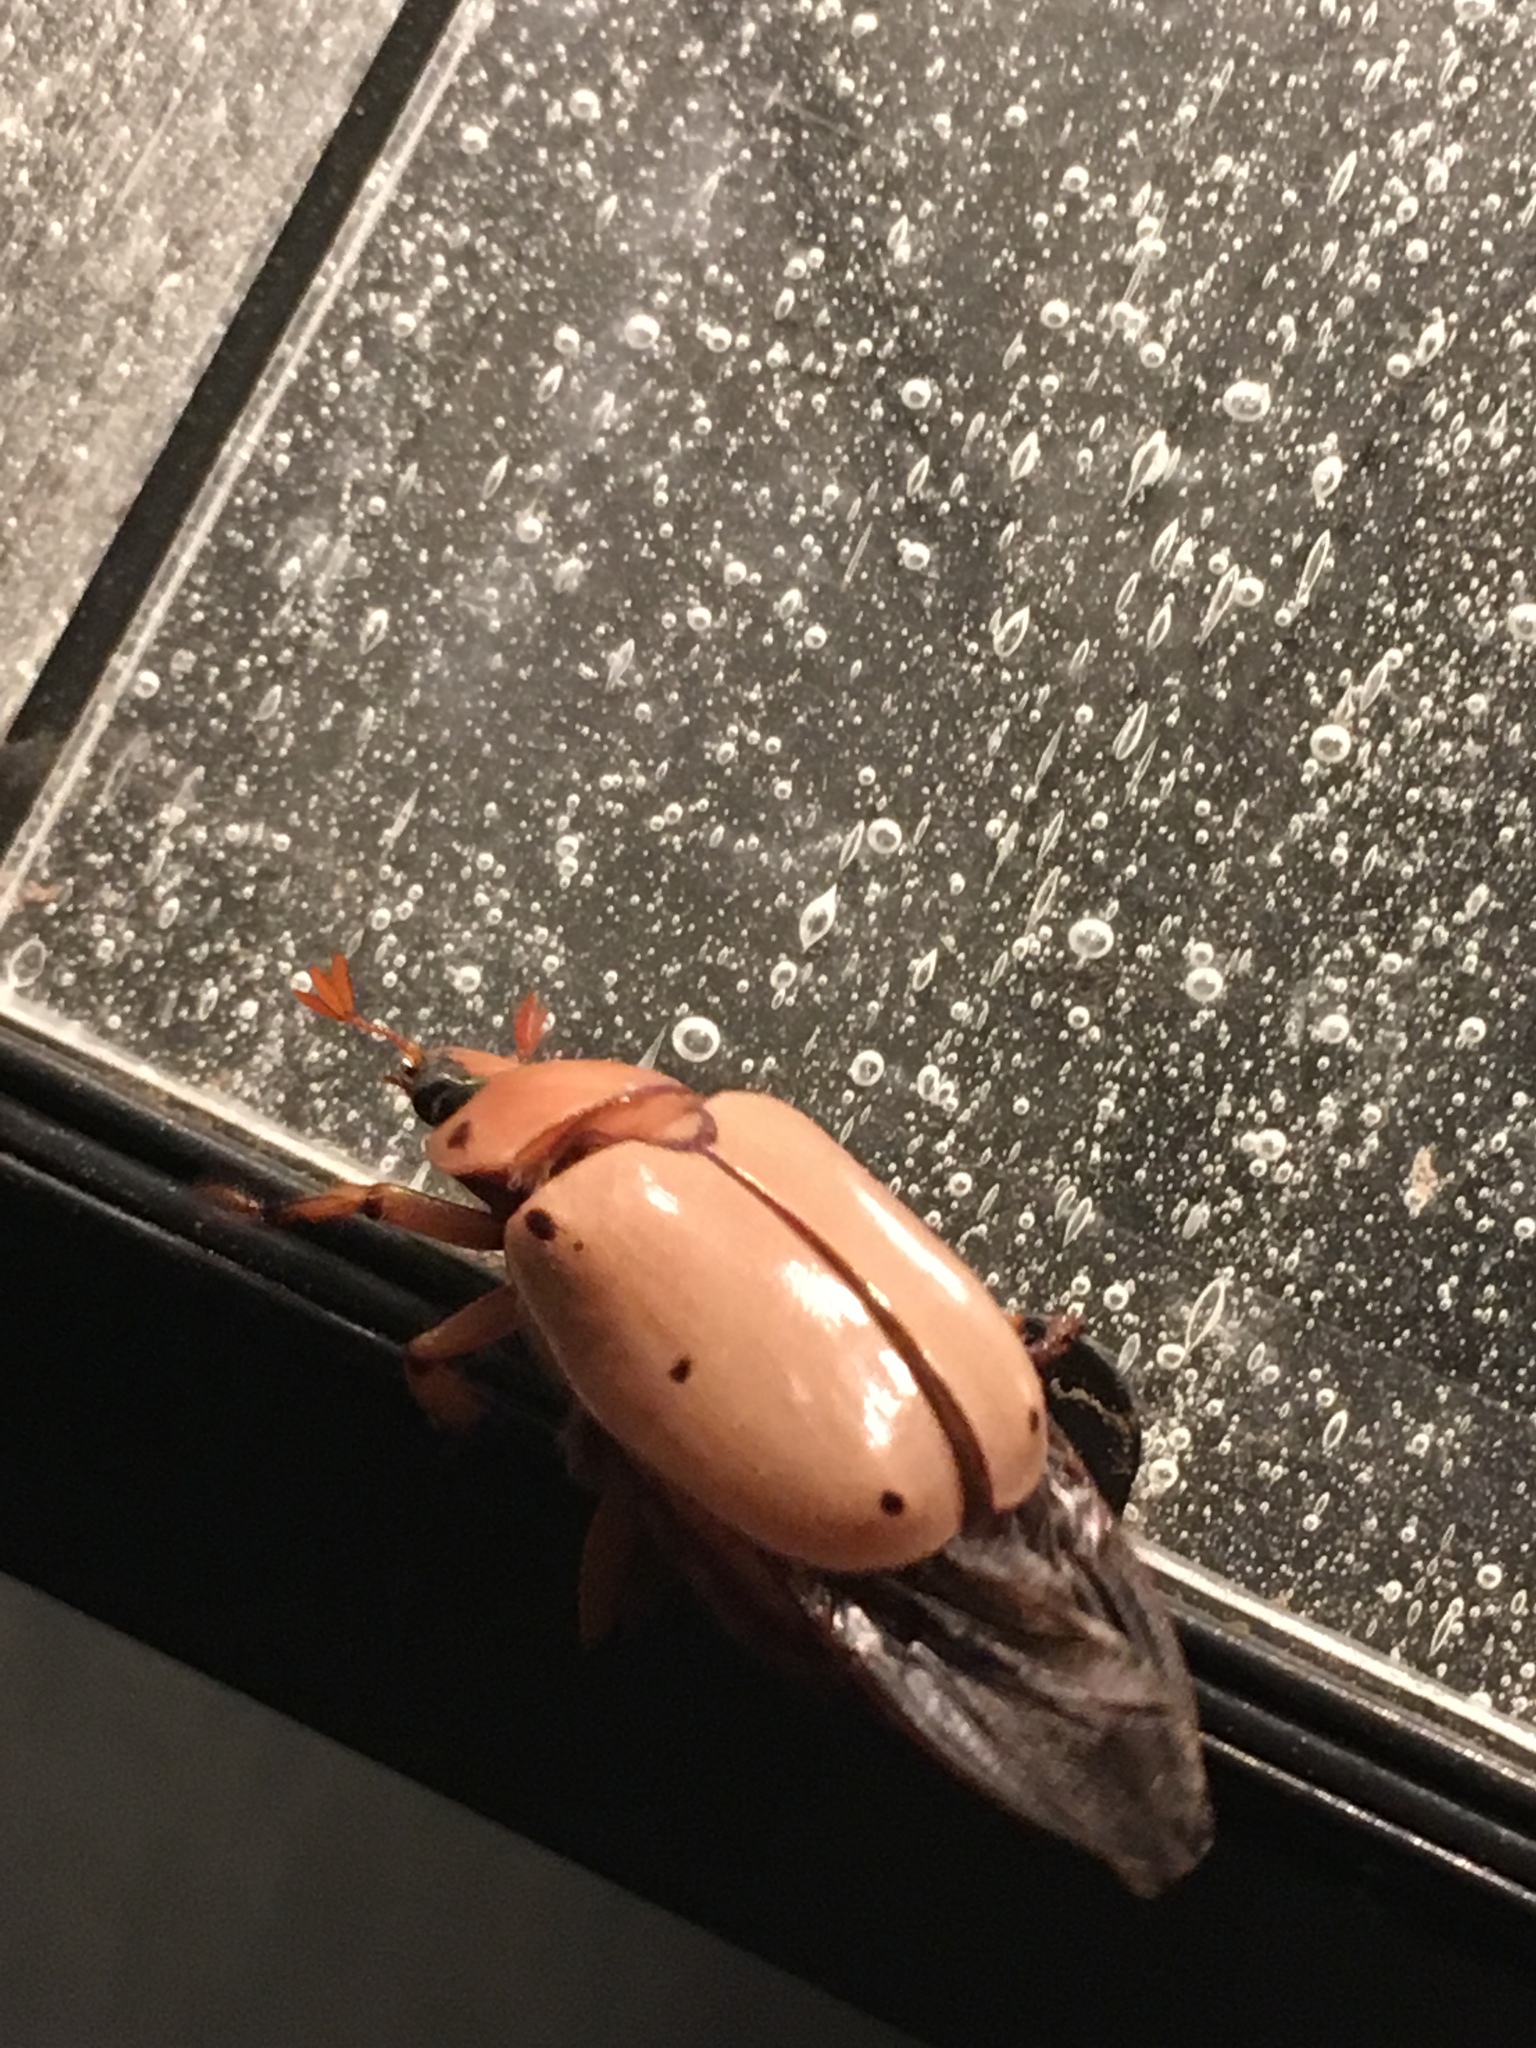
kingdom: Animalia
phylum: Arthropoda
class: Insecta
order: Coleoptera
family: Scarabaeidae
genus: Pelidnota
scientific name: Pelidnota punctata
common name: Grapevine beetle
